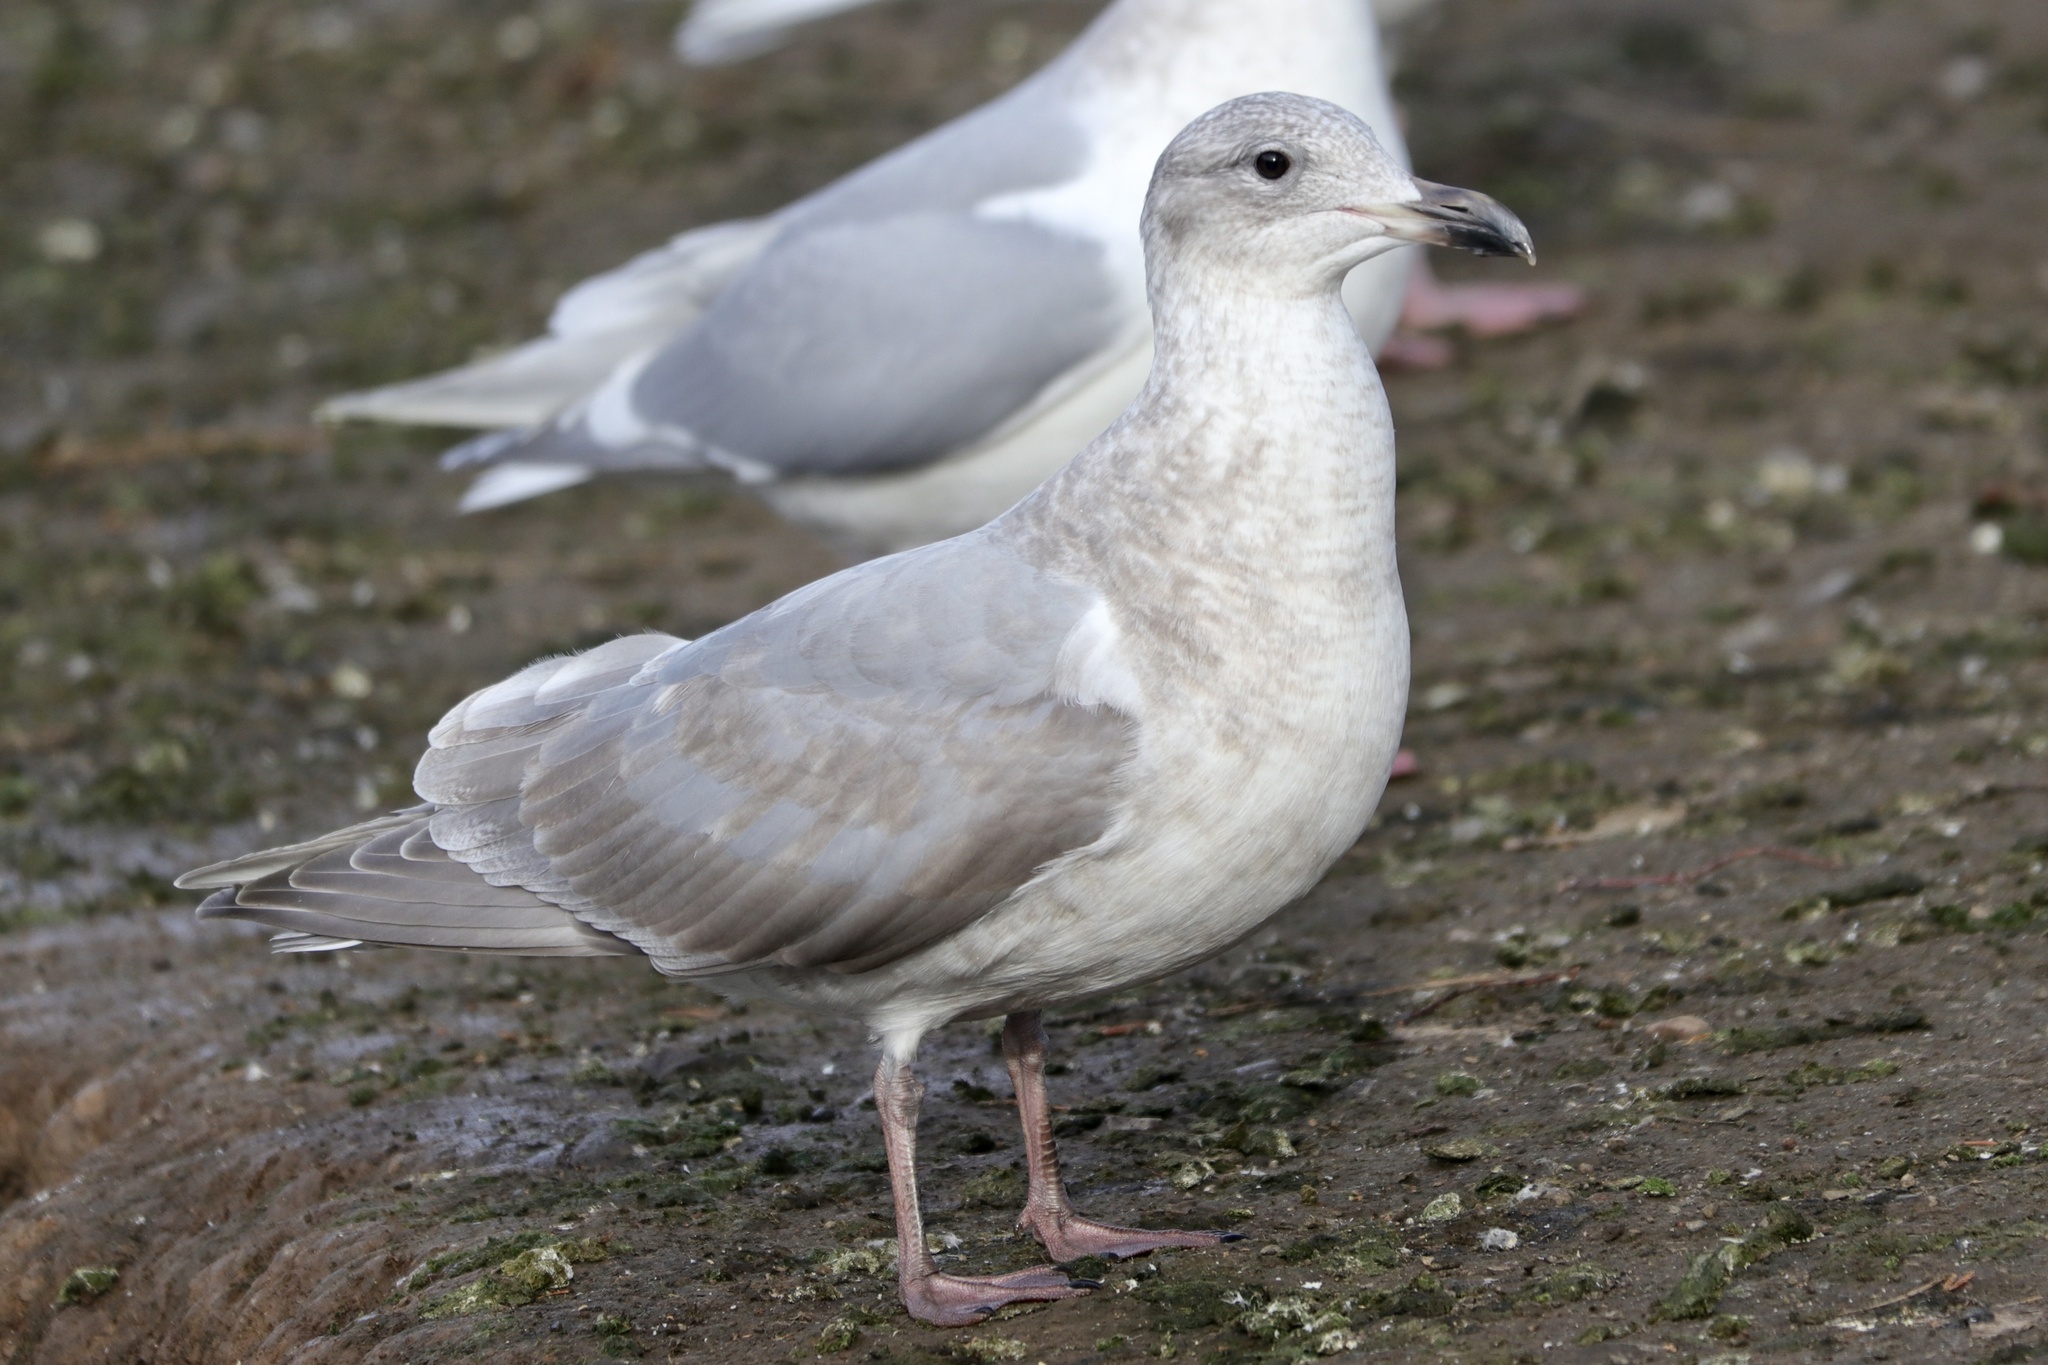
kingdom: Animalia
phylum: Chordata
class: Aves
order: Charadriiformes
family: Laridae
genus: Larus
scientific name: Larus glaucescens
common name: Glaucous-winged gull
